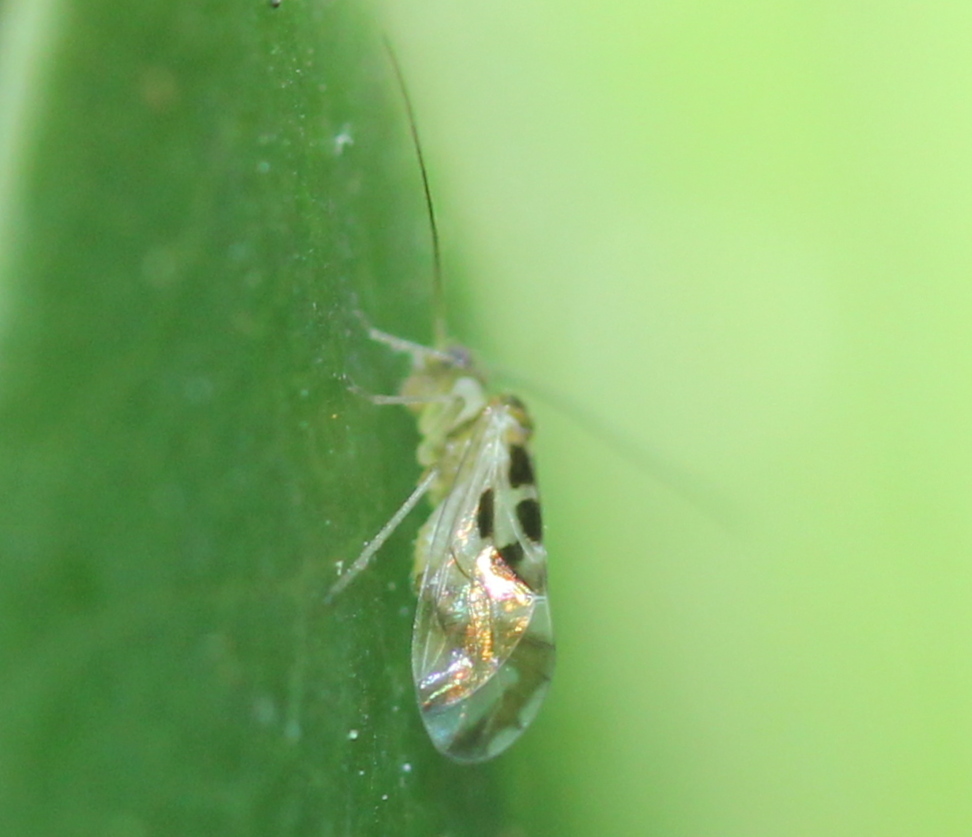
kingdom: Animalia
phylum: Arthropoda
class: Insecta
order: Psocodea
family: Stenopsocidae
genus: Graphopsocus
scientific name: Graphopsocus cruciatus
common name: Lizard bark louse
